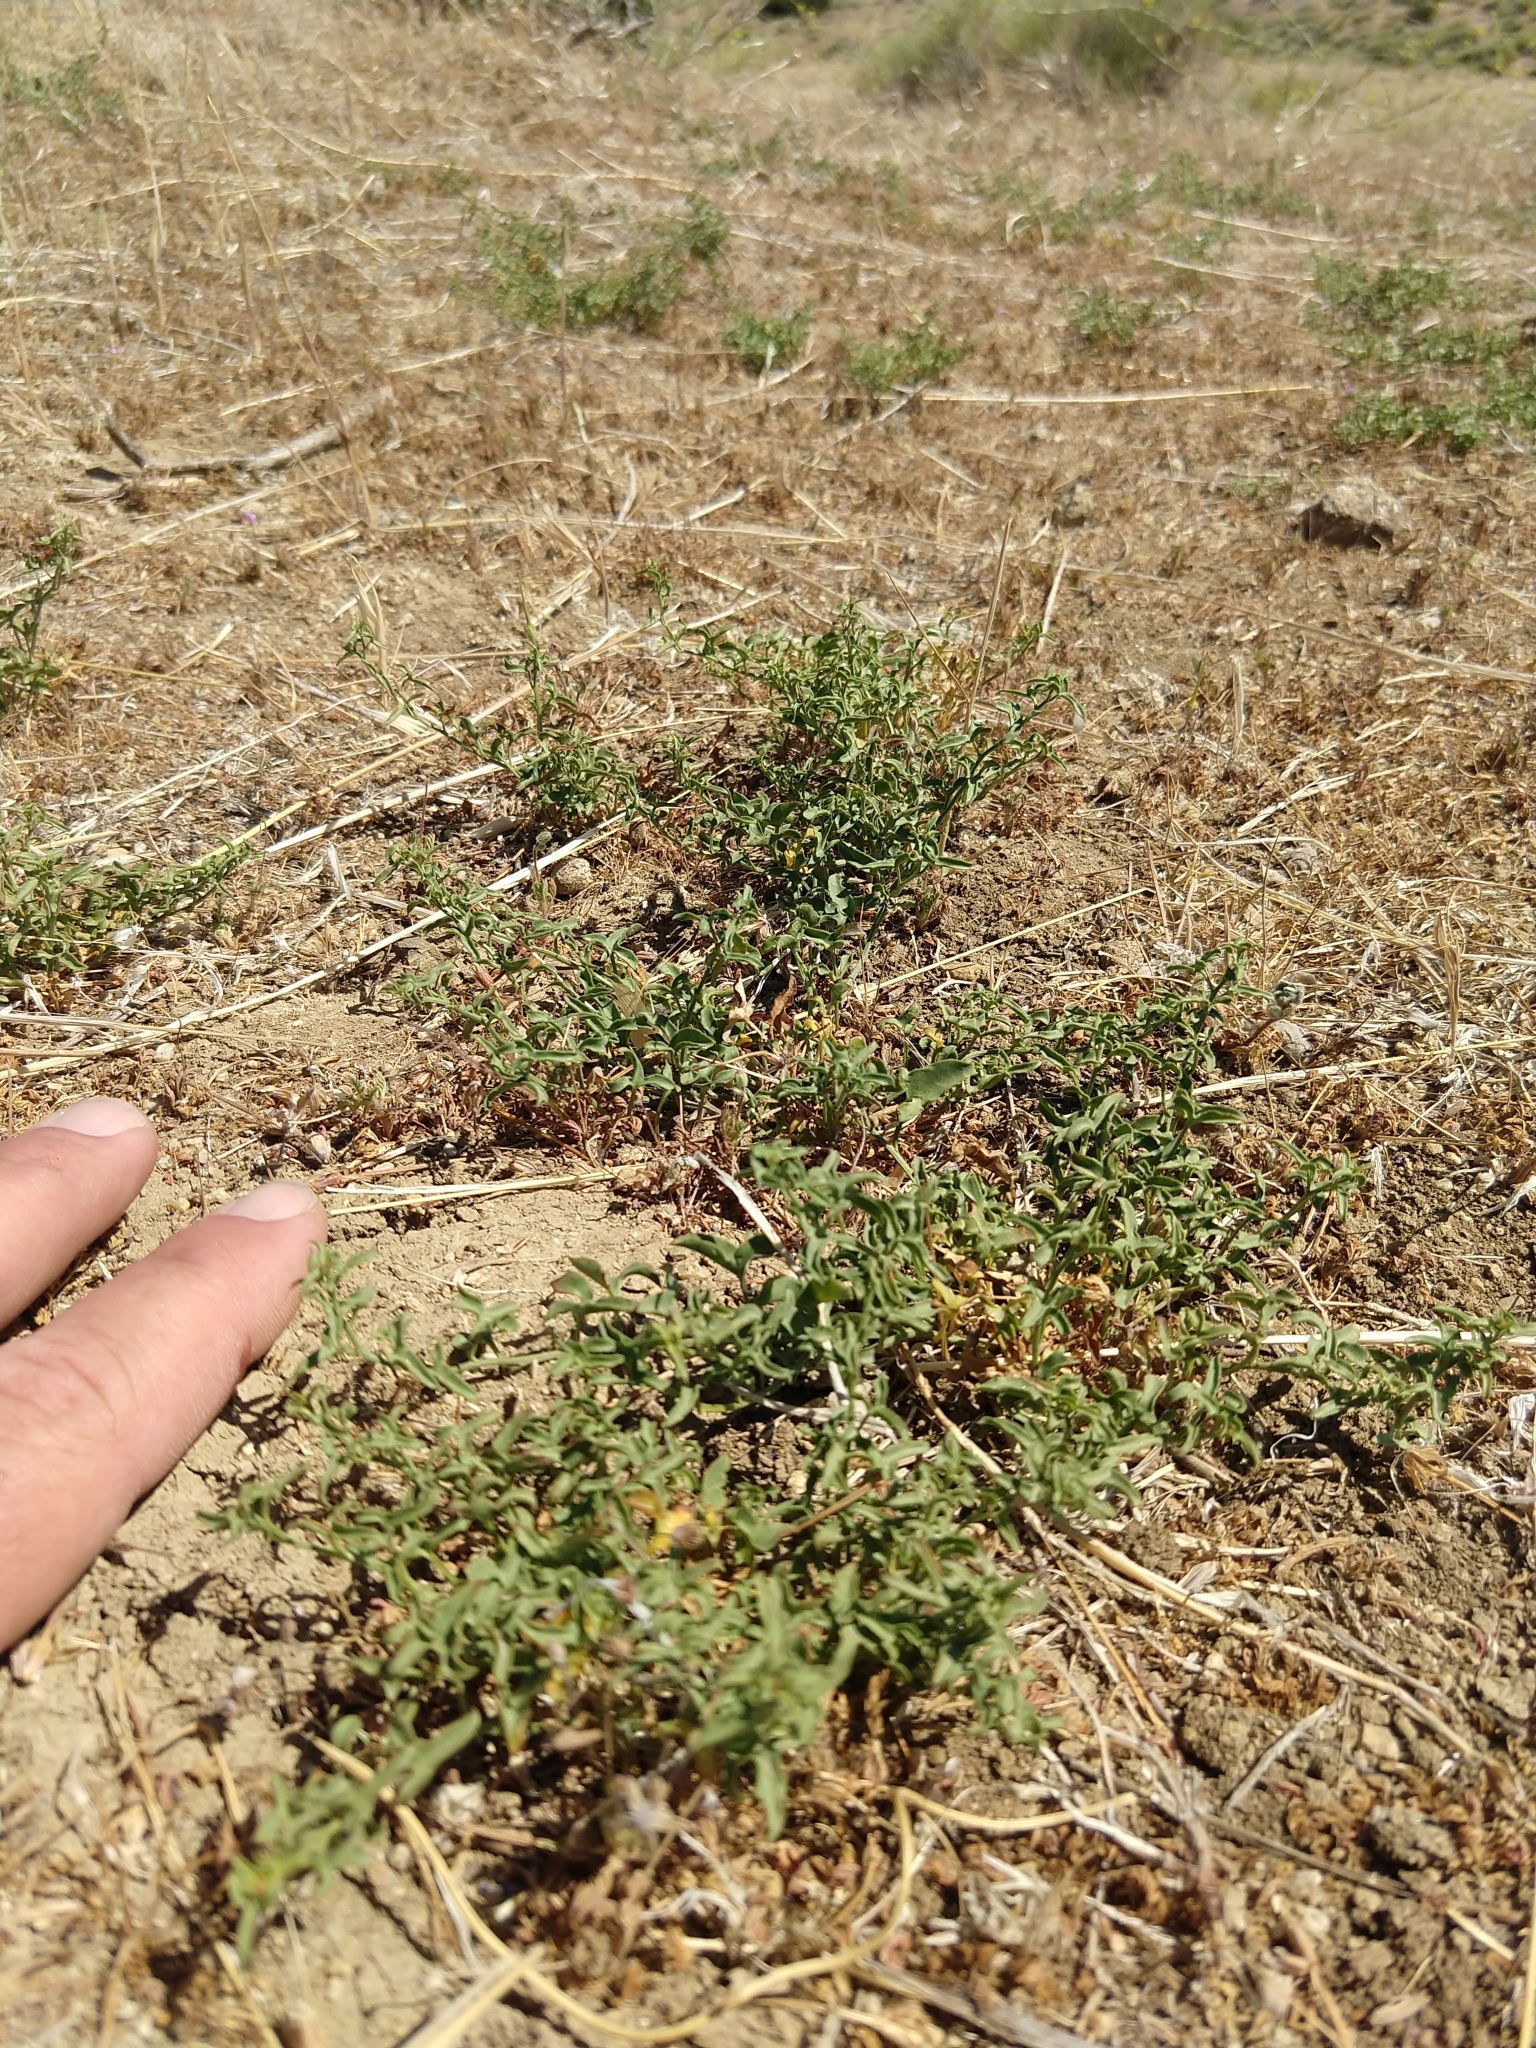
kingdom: Plantae
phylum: Tracheophyta
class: Magnoliopsida
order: Solanales
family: Convolvulaceae
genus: Calystegia
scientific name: Calystegia peirsonii
